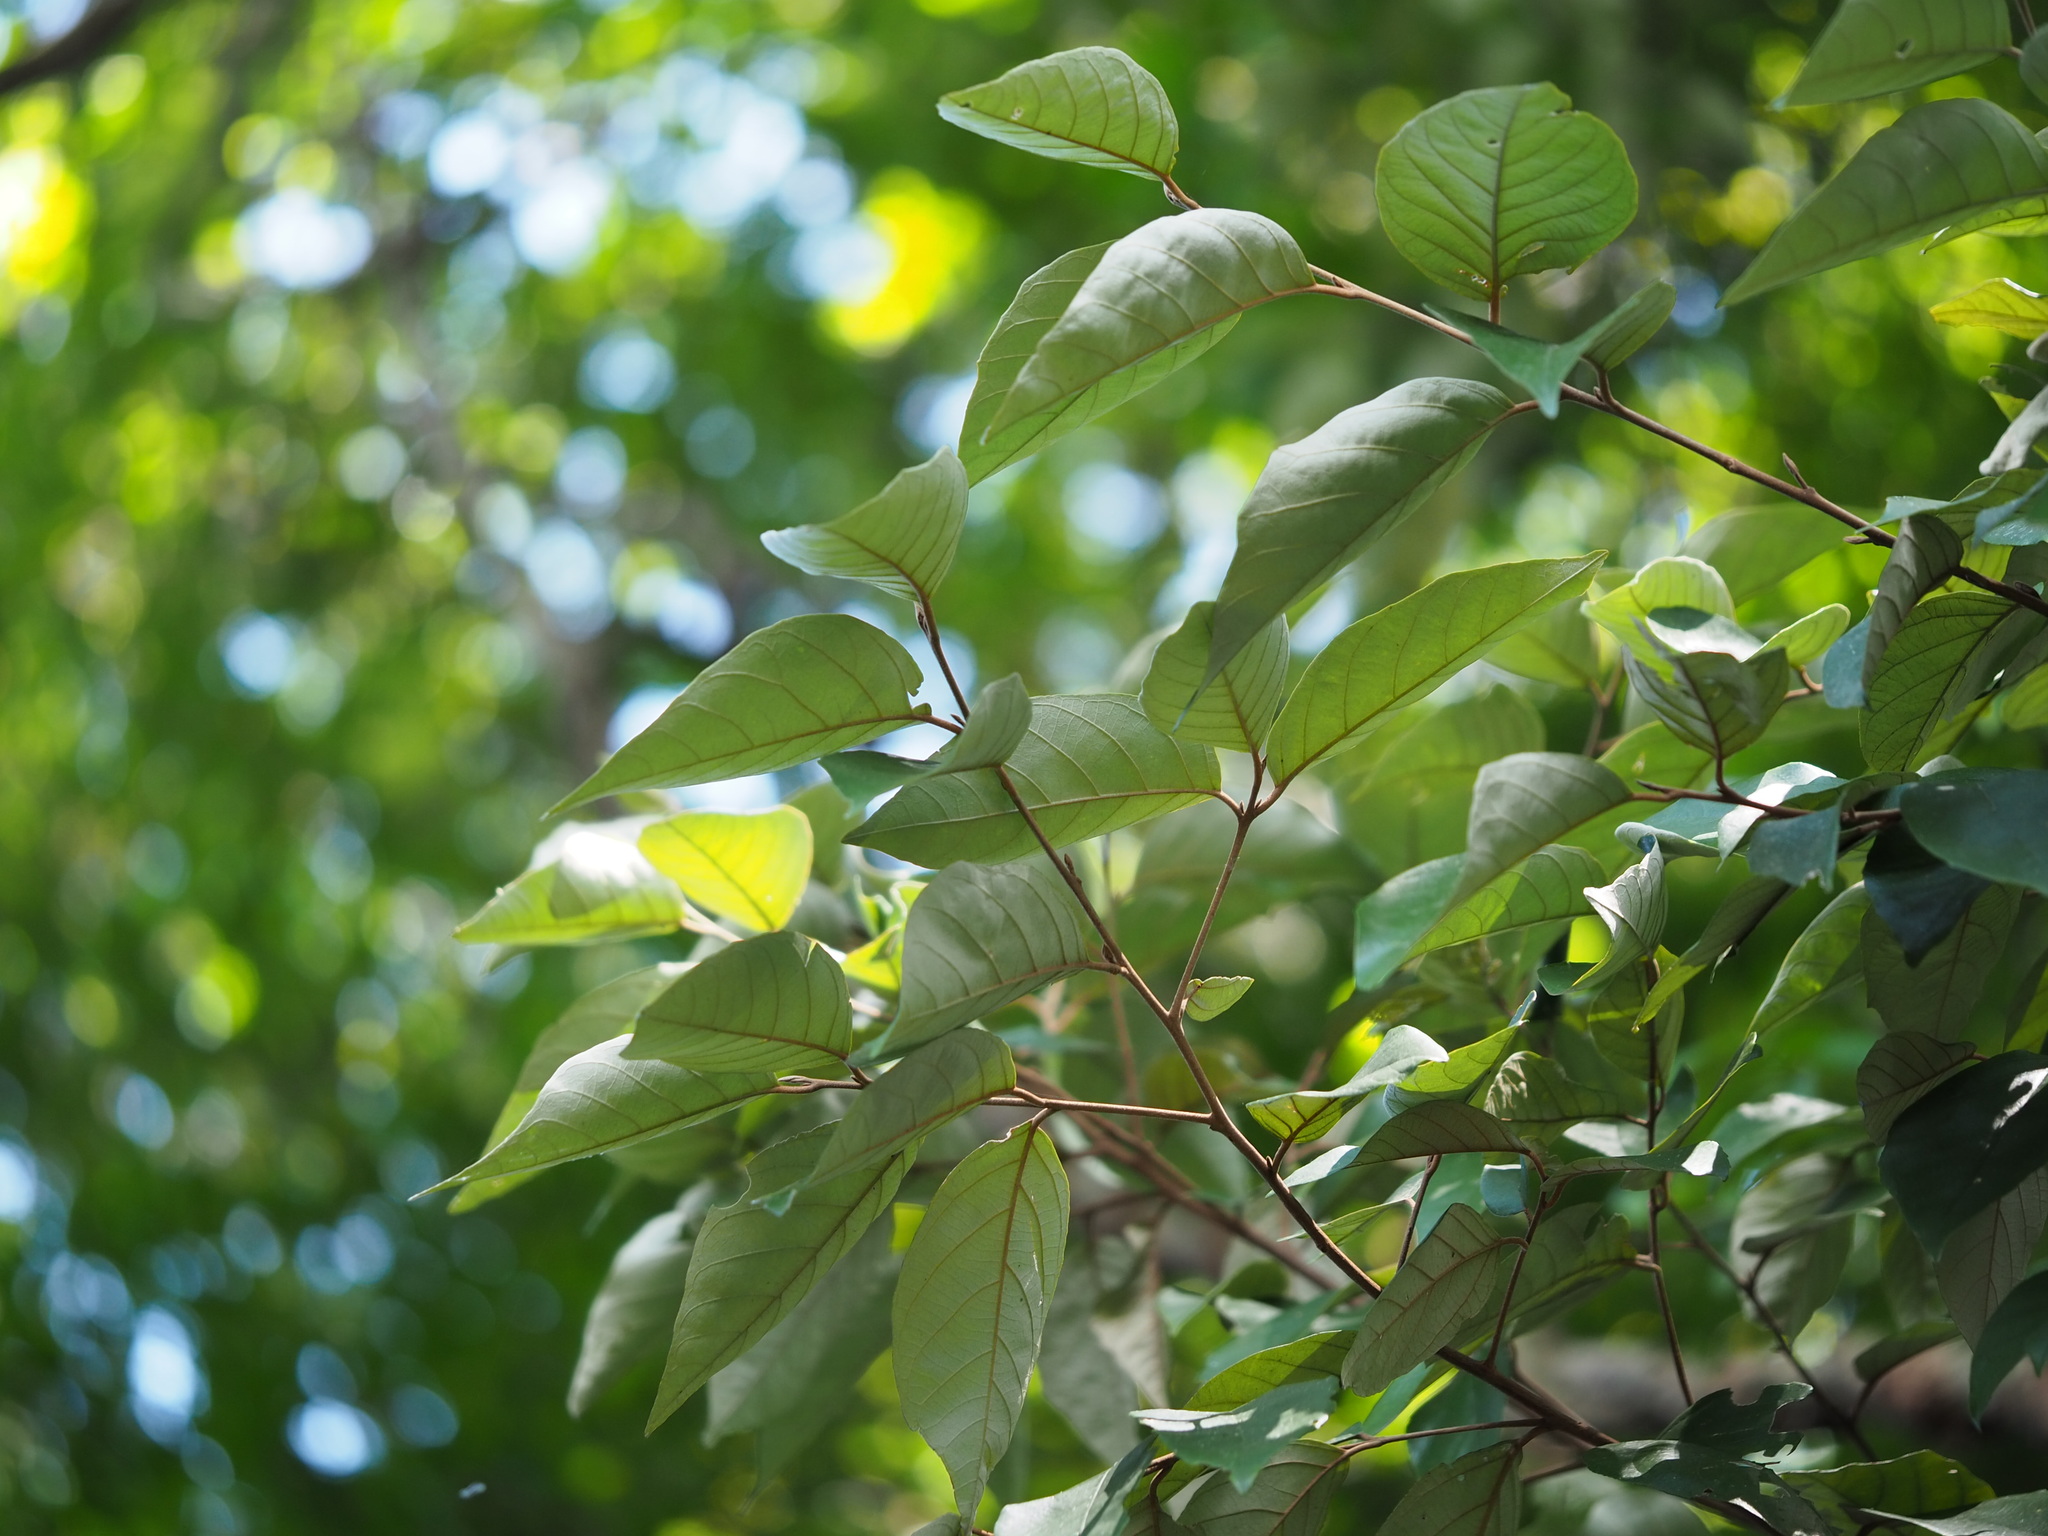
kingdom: Plantae
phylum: Tracheophyta
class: Magnoliopsida
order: Ericales
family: Styracaceae
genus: Styrax
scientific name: Styrax suberifolius
